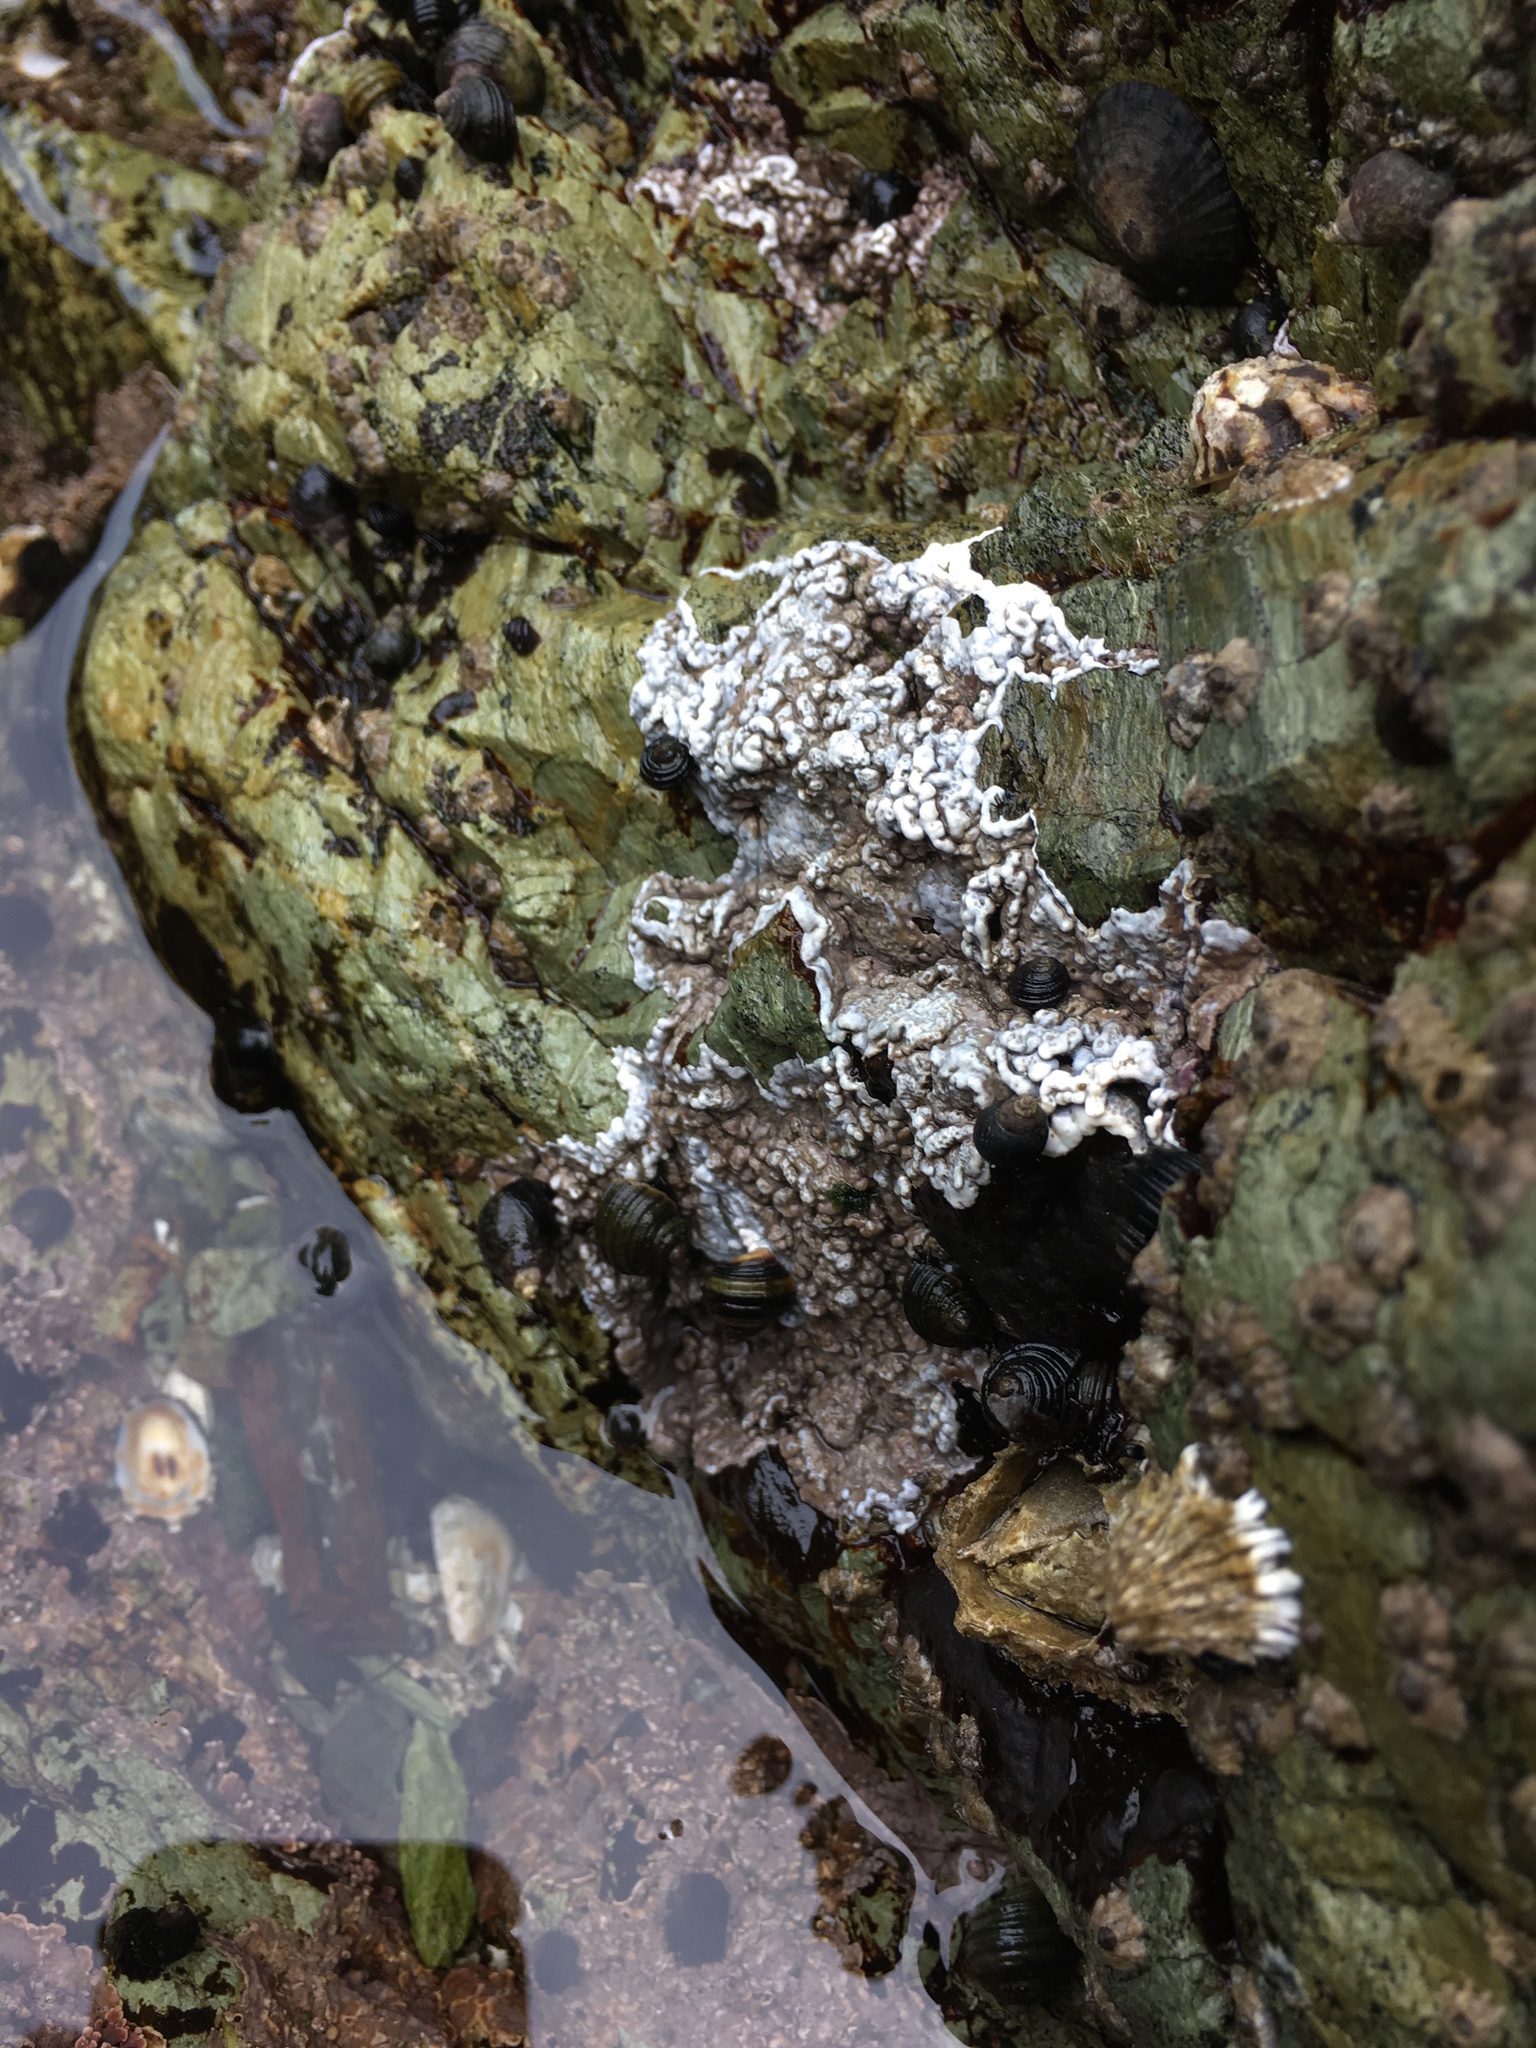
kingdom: Plantae
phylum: Rhodophyta
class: Florideophyceae
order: Corallinales
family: Corallinaceae
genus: Chamberlainium
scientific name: Chamberlainium tumidum
